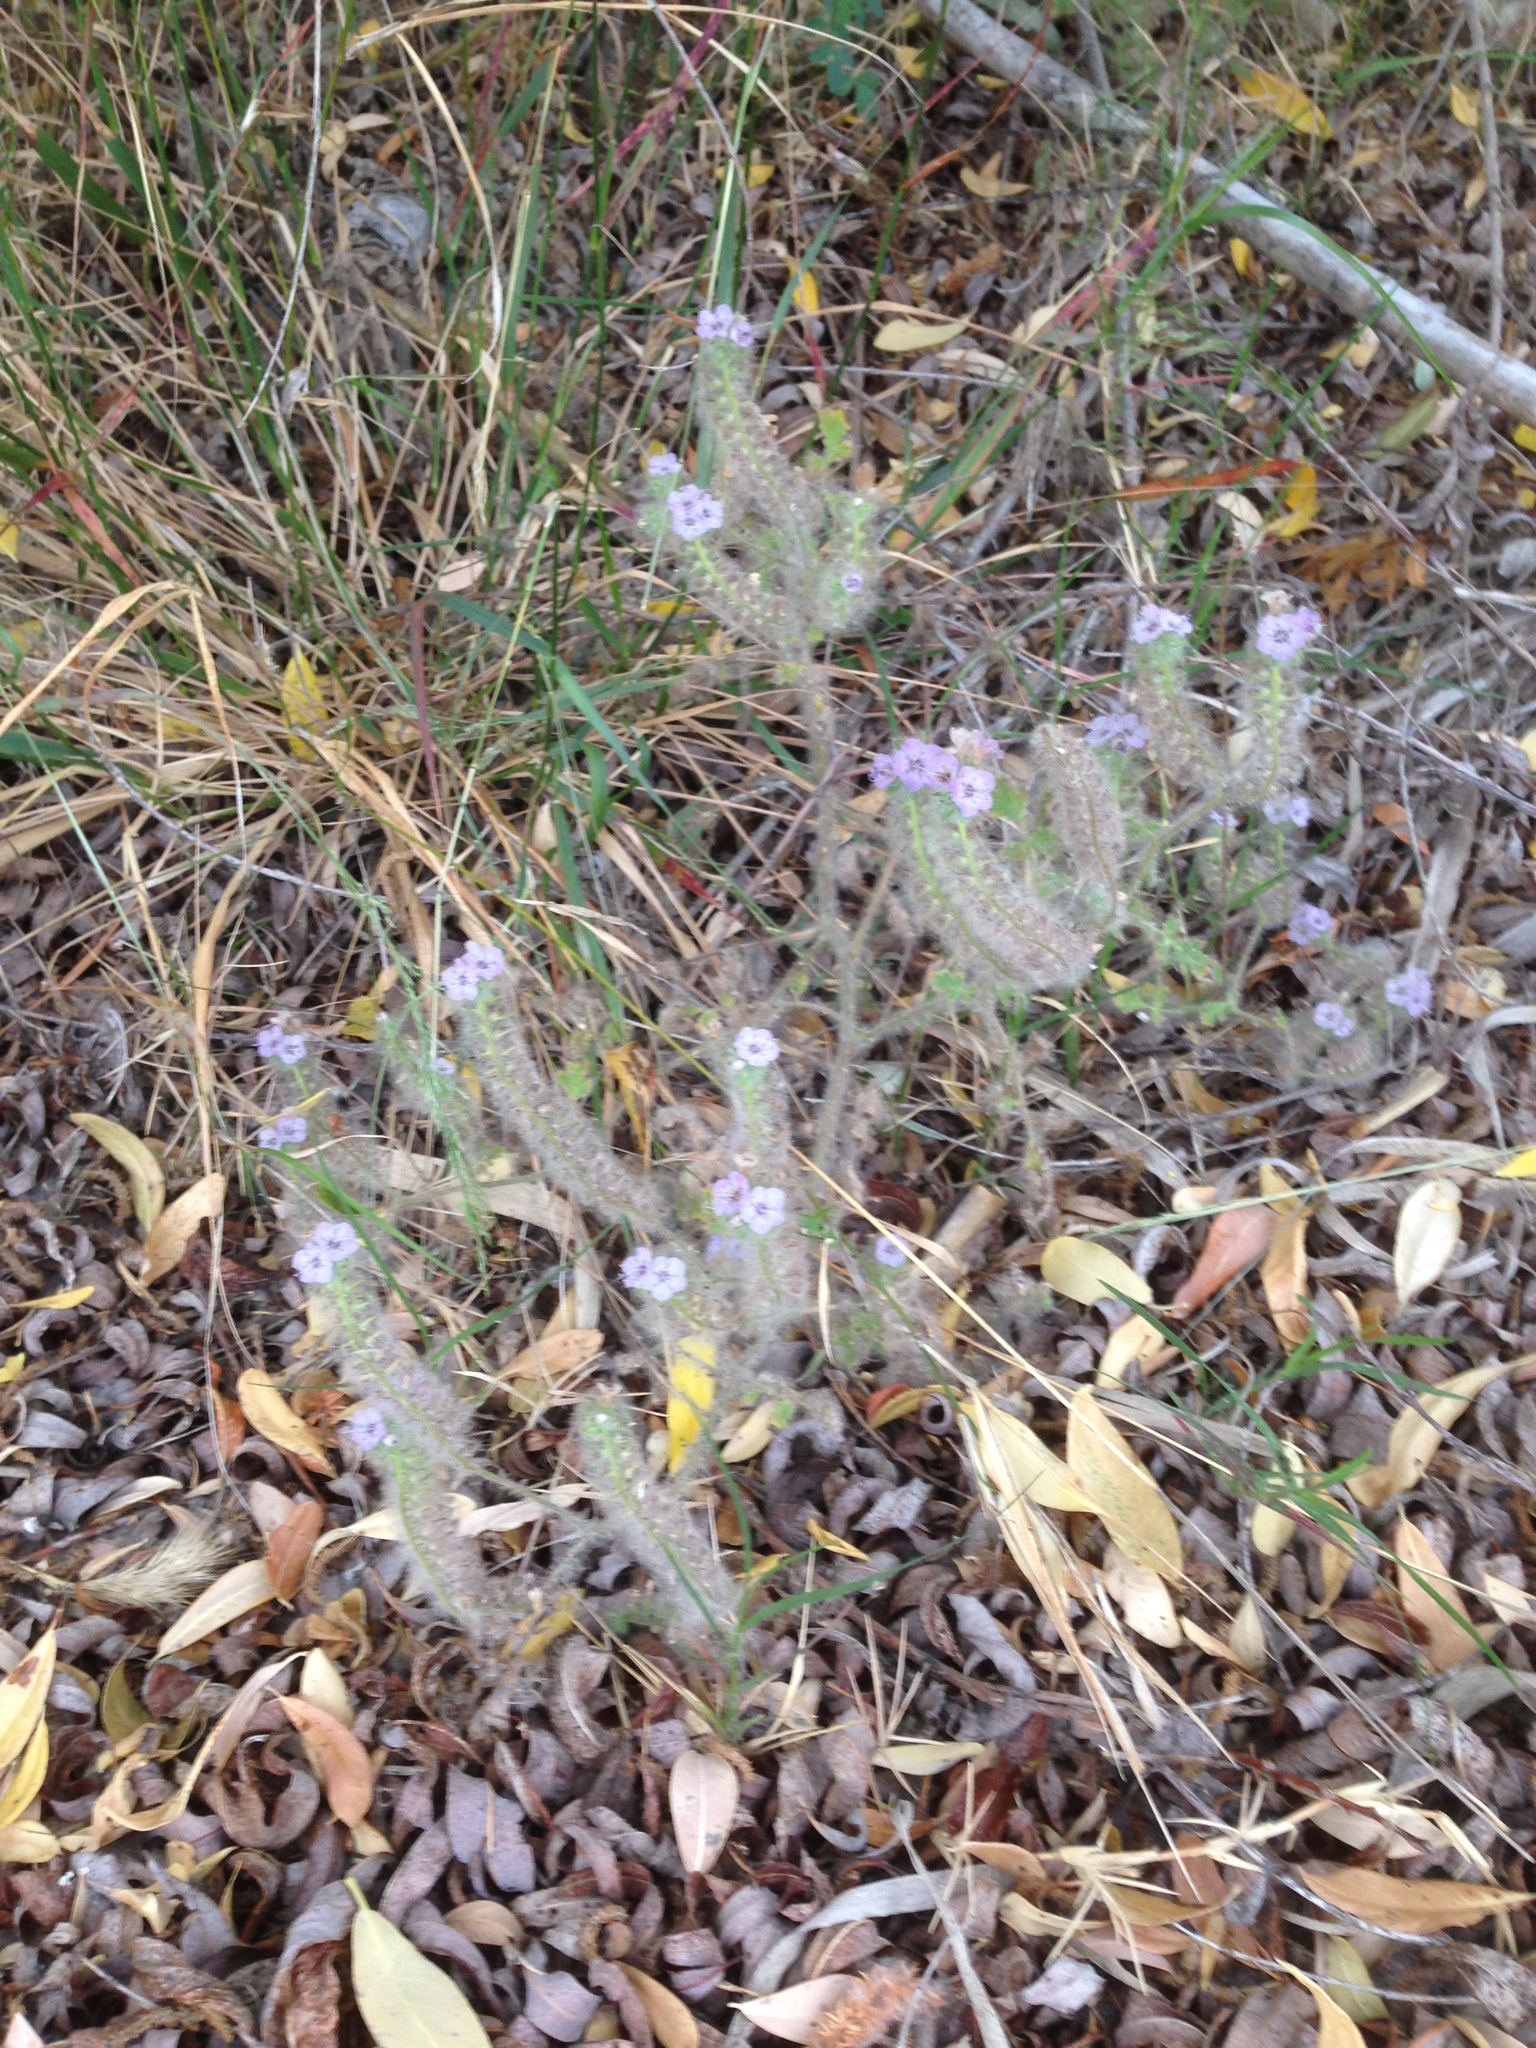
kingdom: Plantae
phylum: Tracheophyta
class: Magnoliopsida
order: Boraginales
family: Hydrophyllaceae
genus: Phacelia
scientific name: Phacelia cicutaria
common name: Caterpillar phacelia
